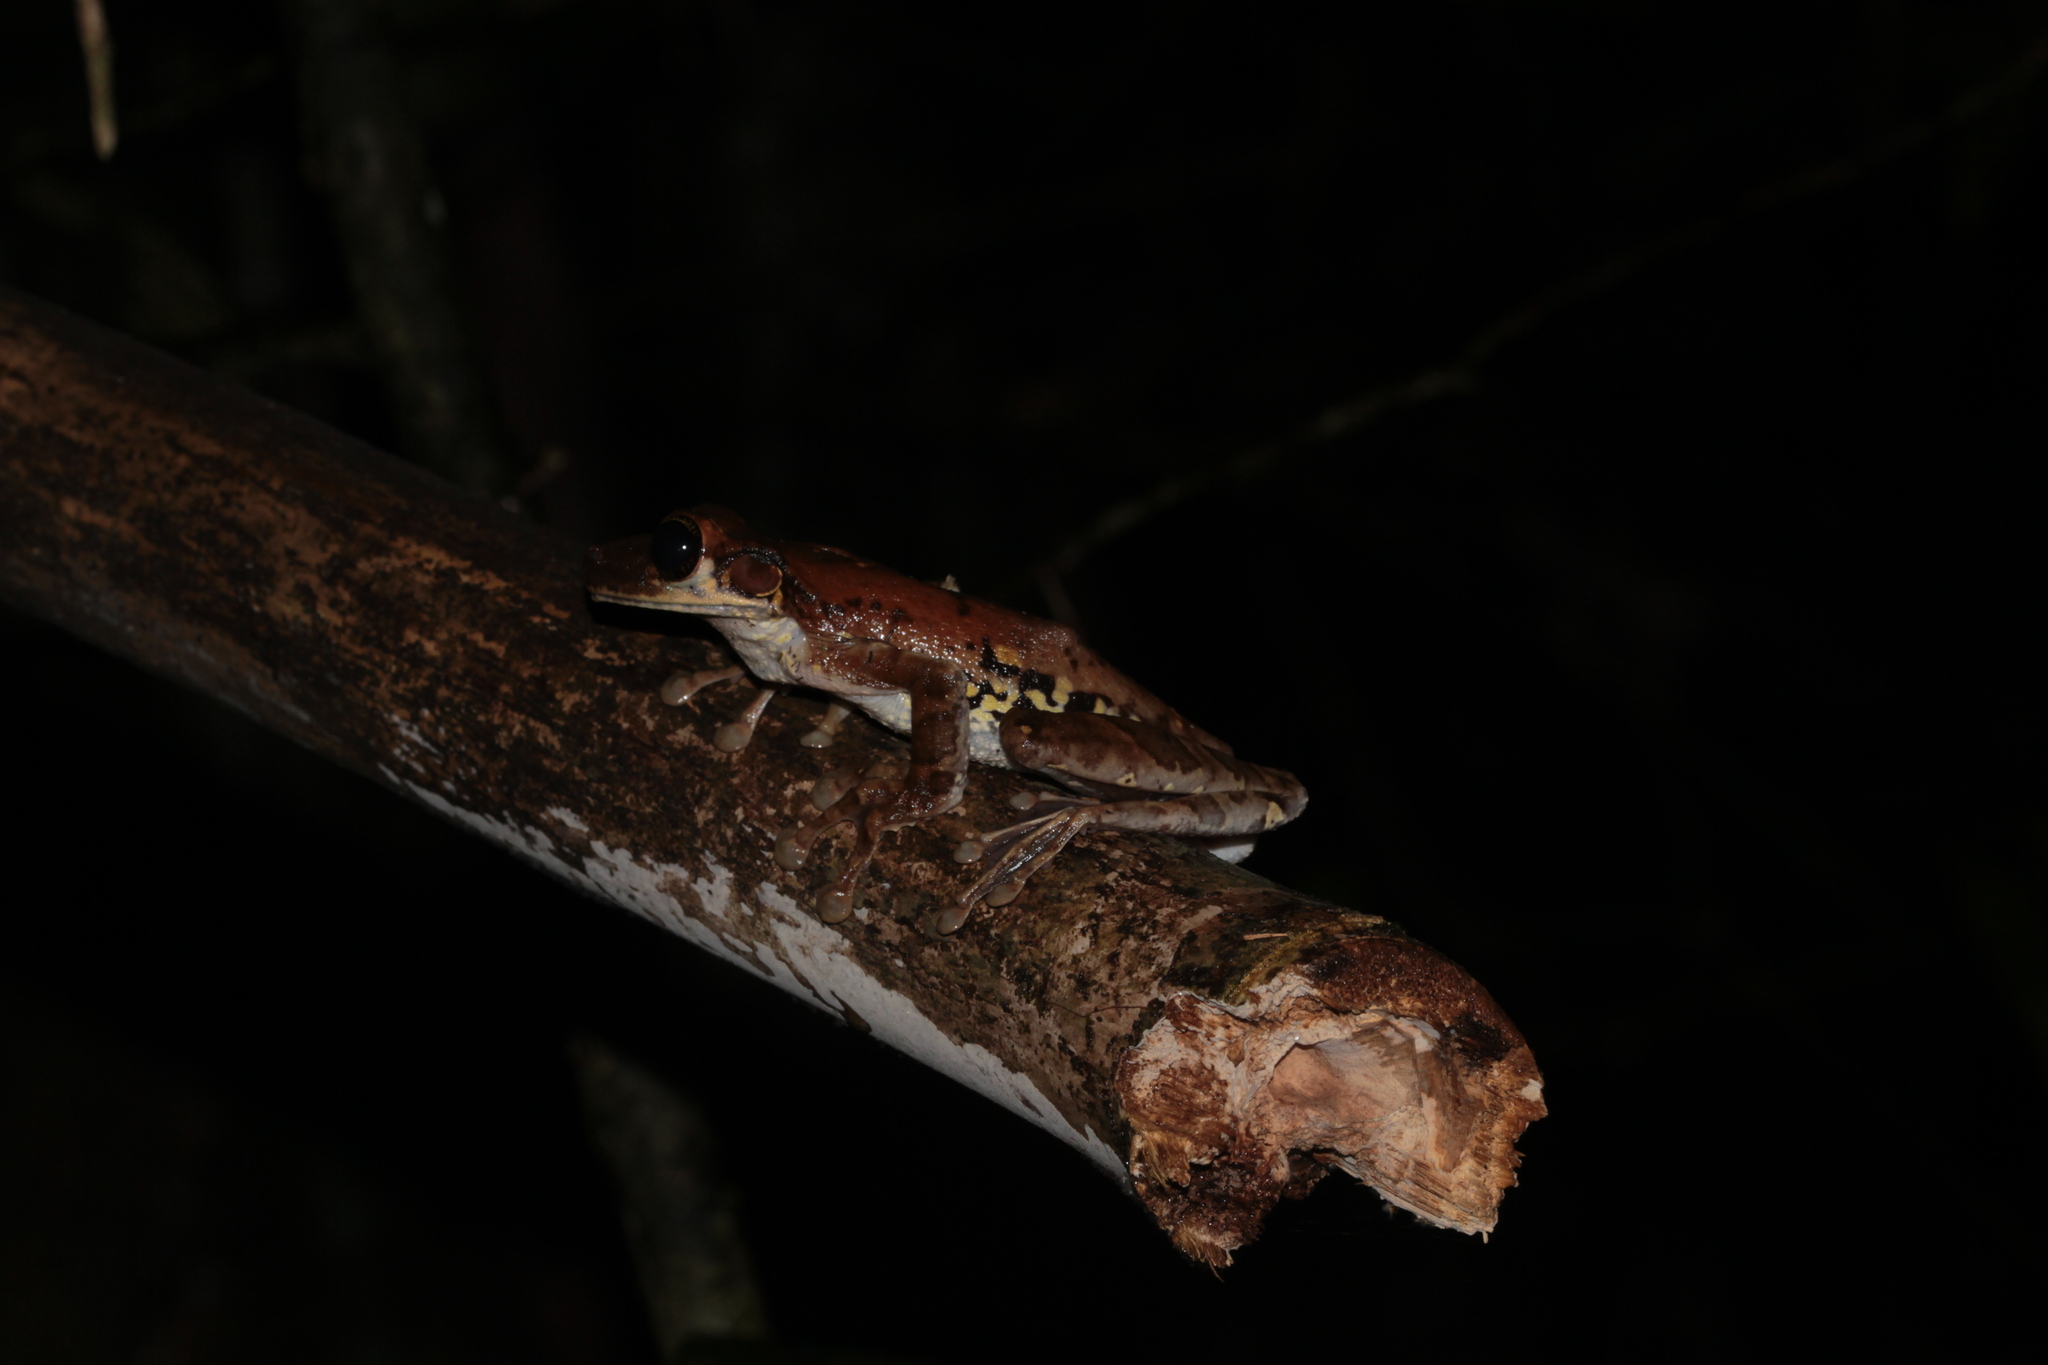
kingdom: Animalia
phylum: Chordata
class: Amphibia
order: Anura
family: Hylidae
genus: Osteocephalus
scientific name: Osteocephalus taurinus
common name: Manaus slender-legged treefrog
